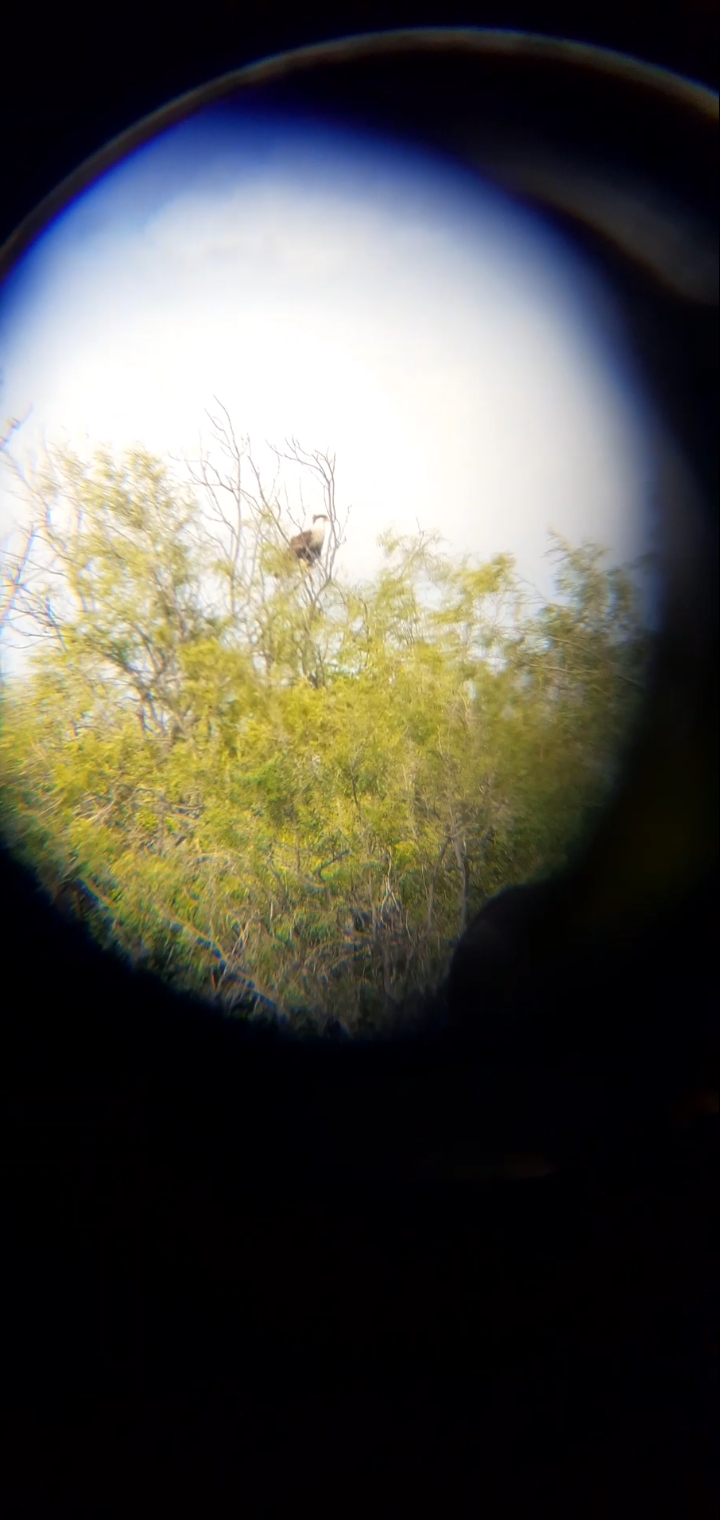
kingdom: Animalia
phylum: Chordata
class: Aves
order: Falconiformes
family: Falconidae
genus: Caracara
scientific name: Caracara plancus
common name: Southern caracara
